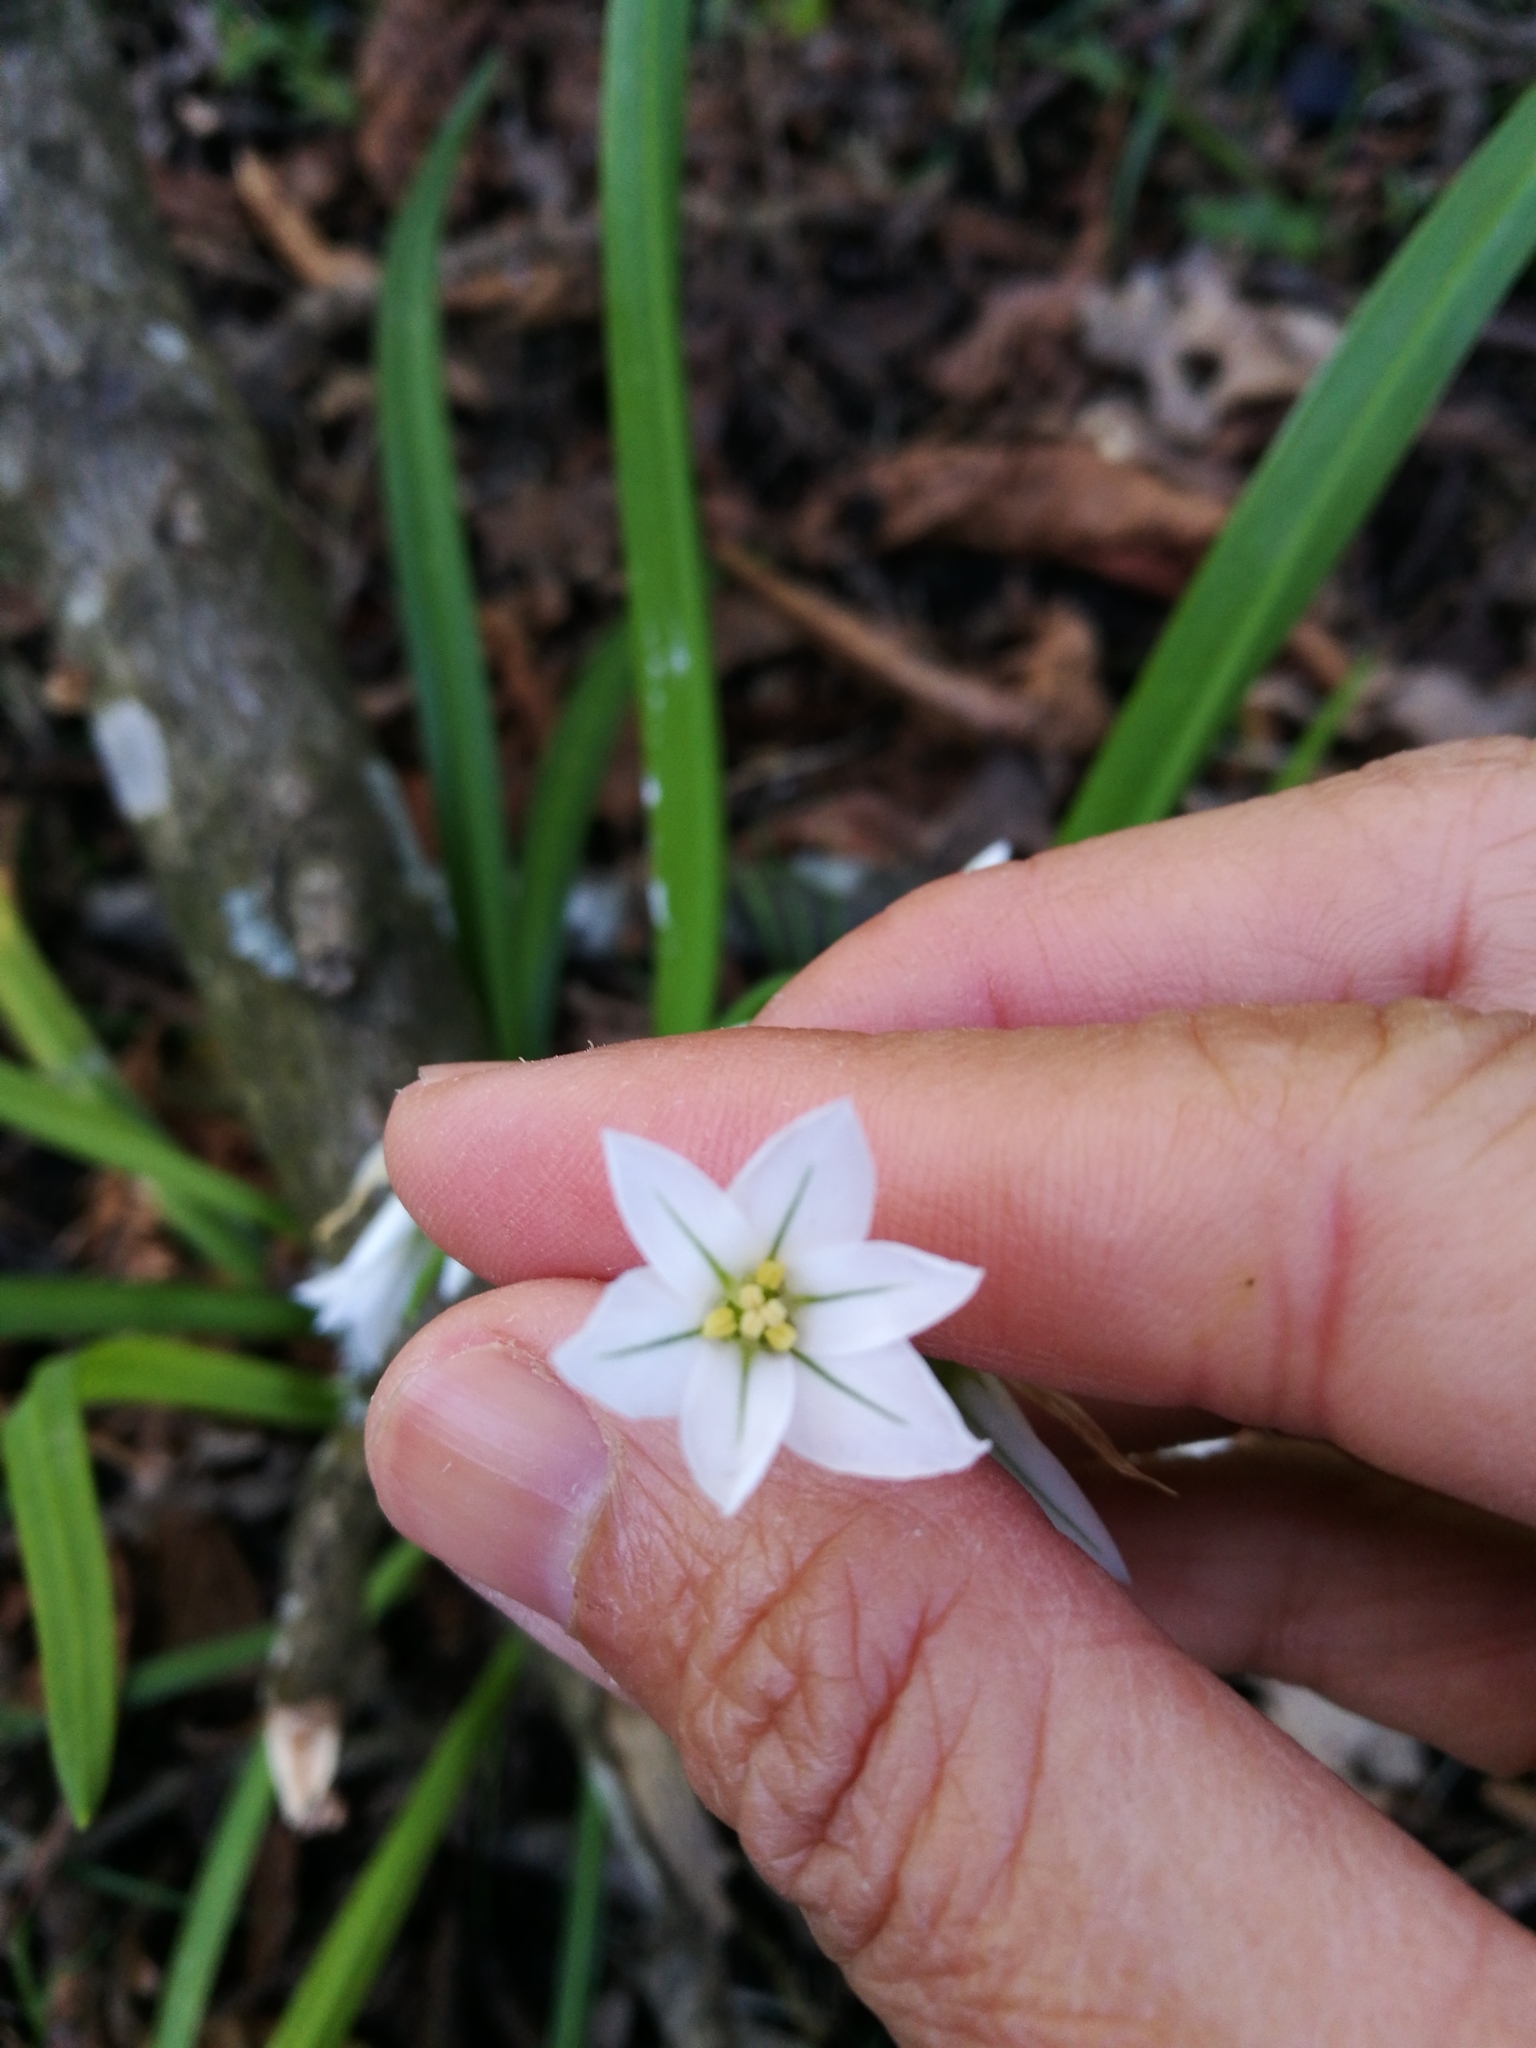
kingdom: Plantae
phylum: Tracheophyta
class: Liliopsida
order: Asparagales
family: Amaryllidaceae
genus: Allium
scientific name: Allium triquetrum
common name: Three-cornered garlic
